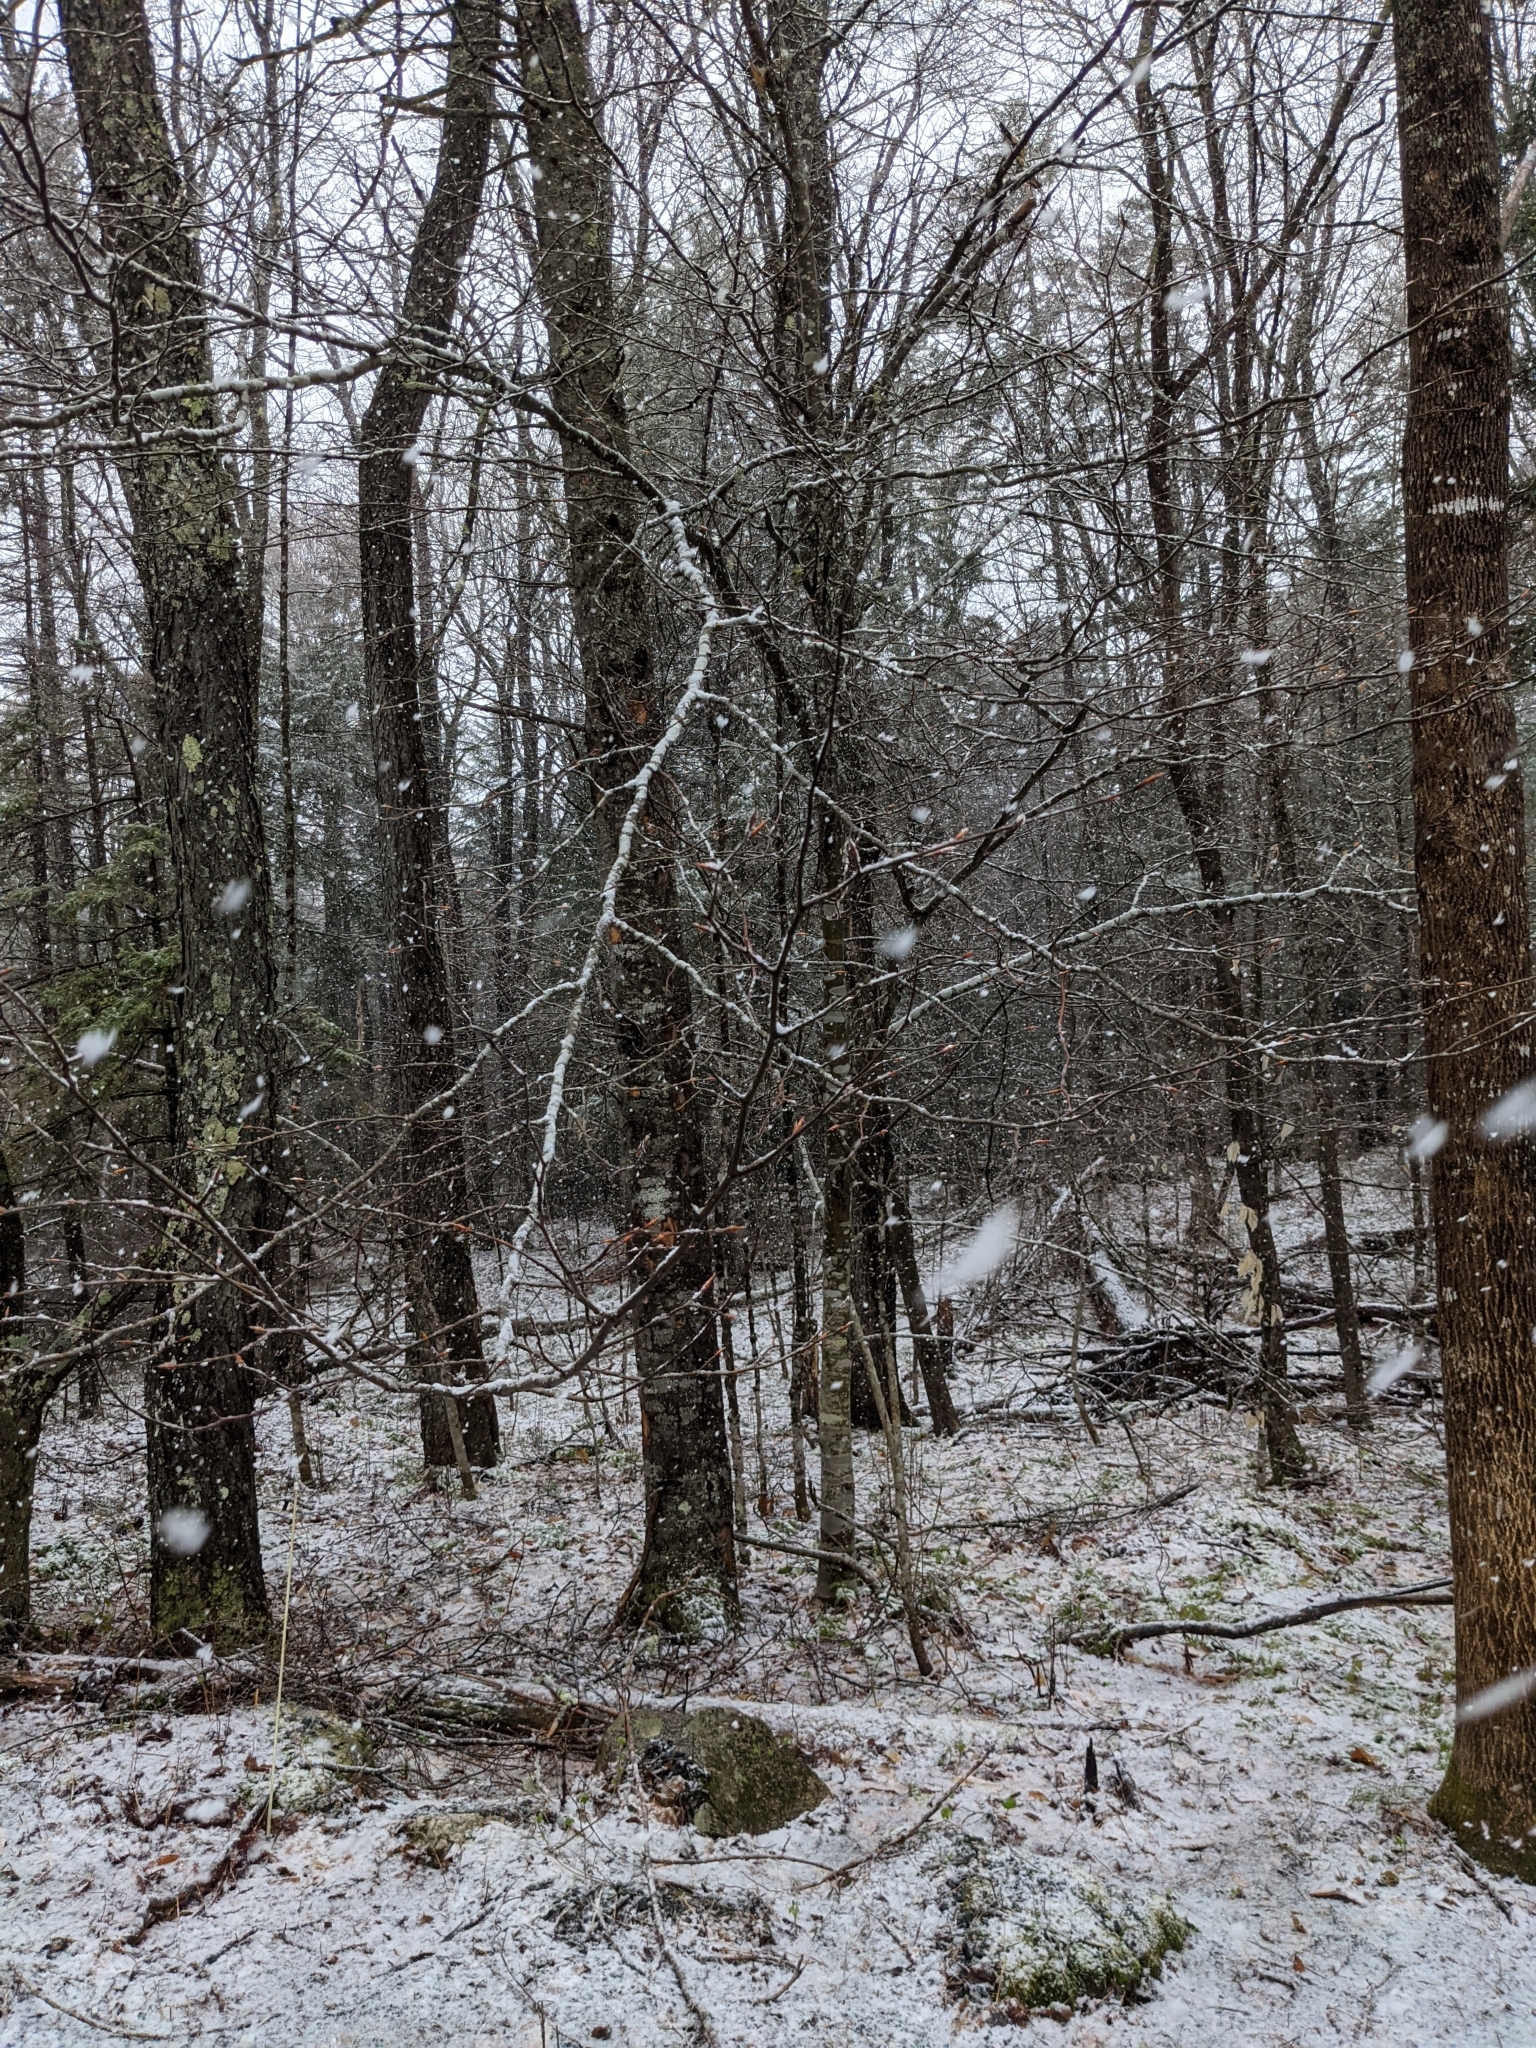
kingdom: Plantae
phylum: Tracheophyta
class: Magnoliopsida
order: Fagales
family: Fagaceae
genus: Fagus
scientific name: Fagus grandifolia
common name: American beech
